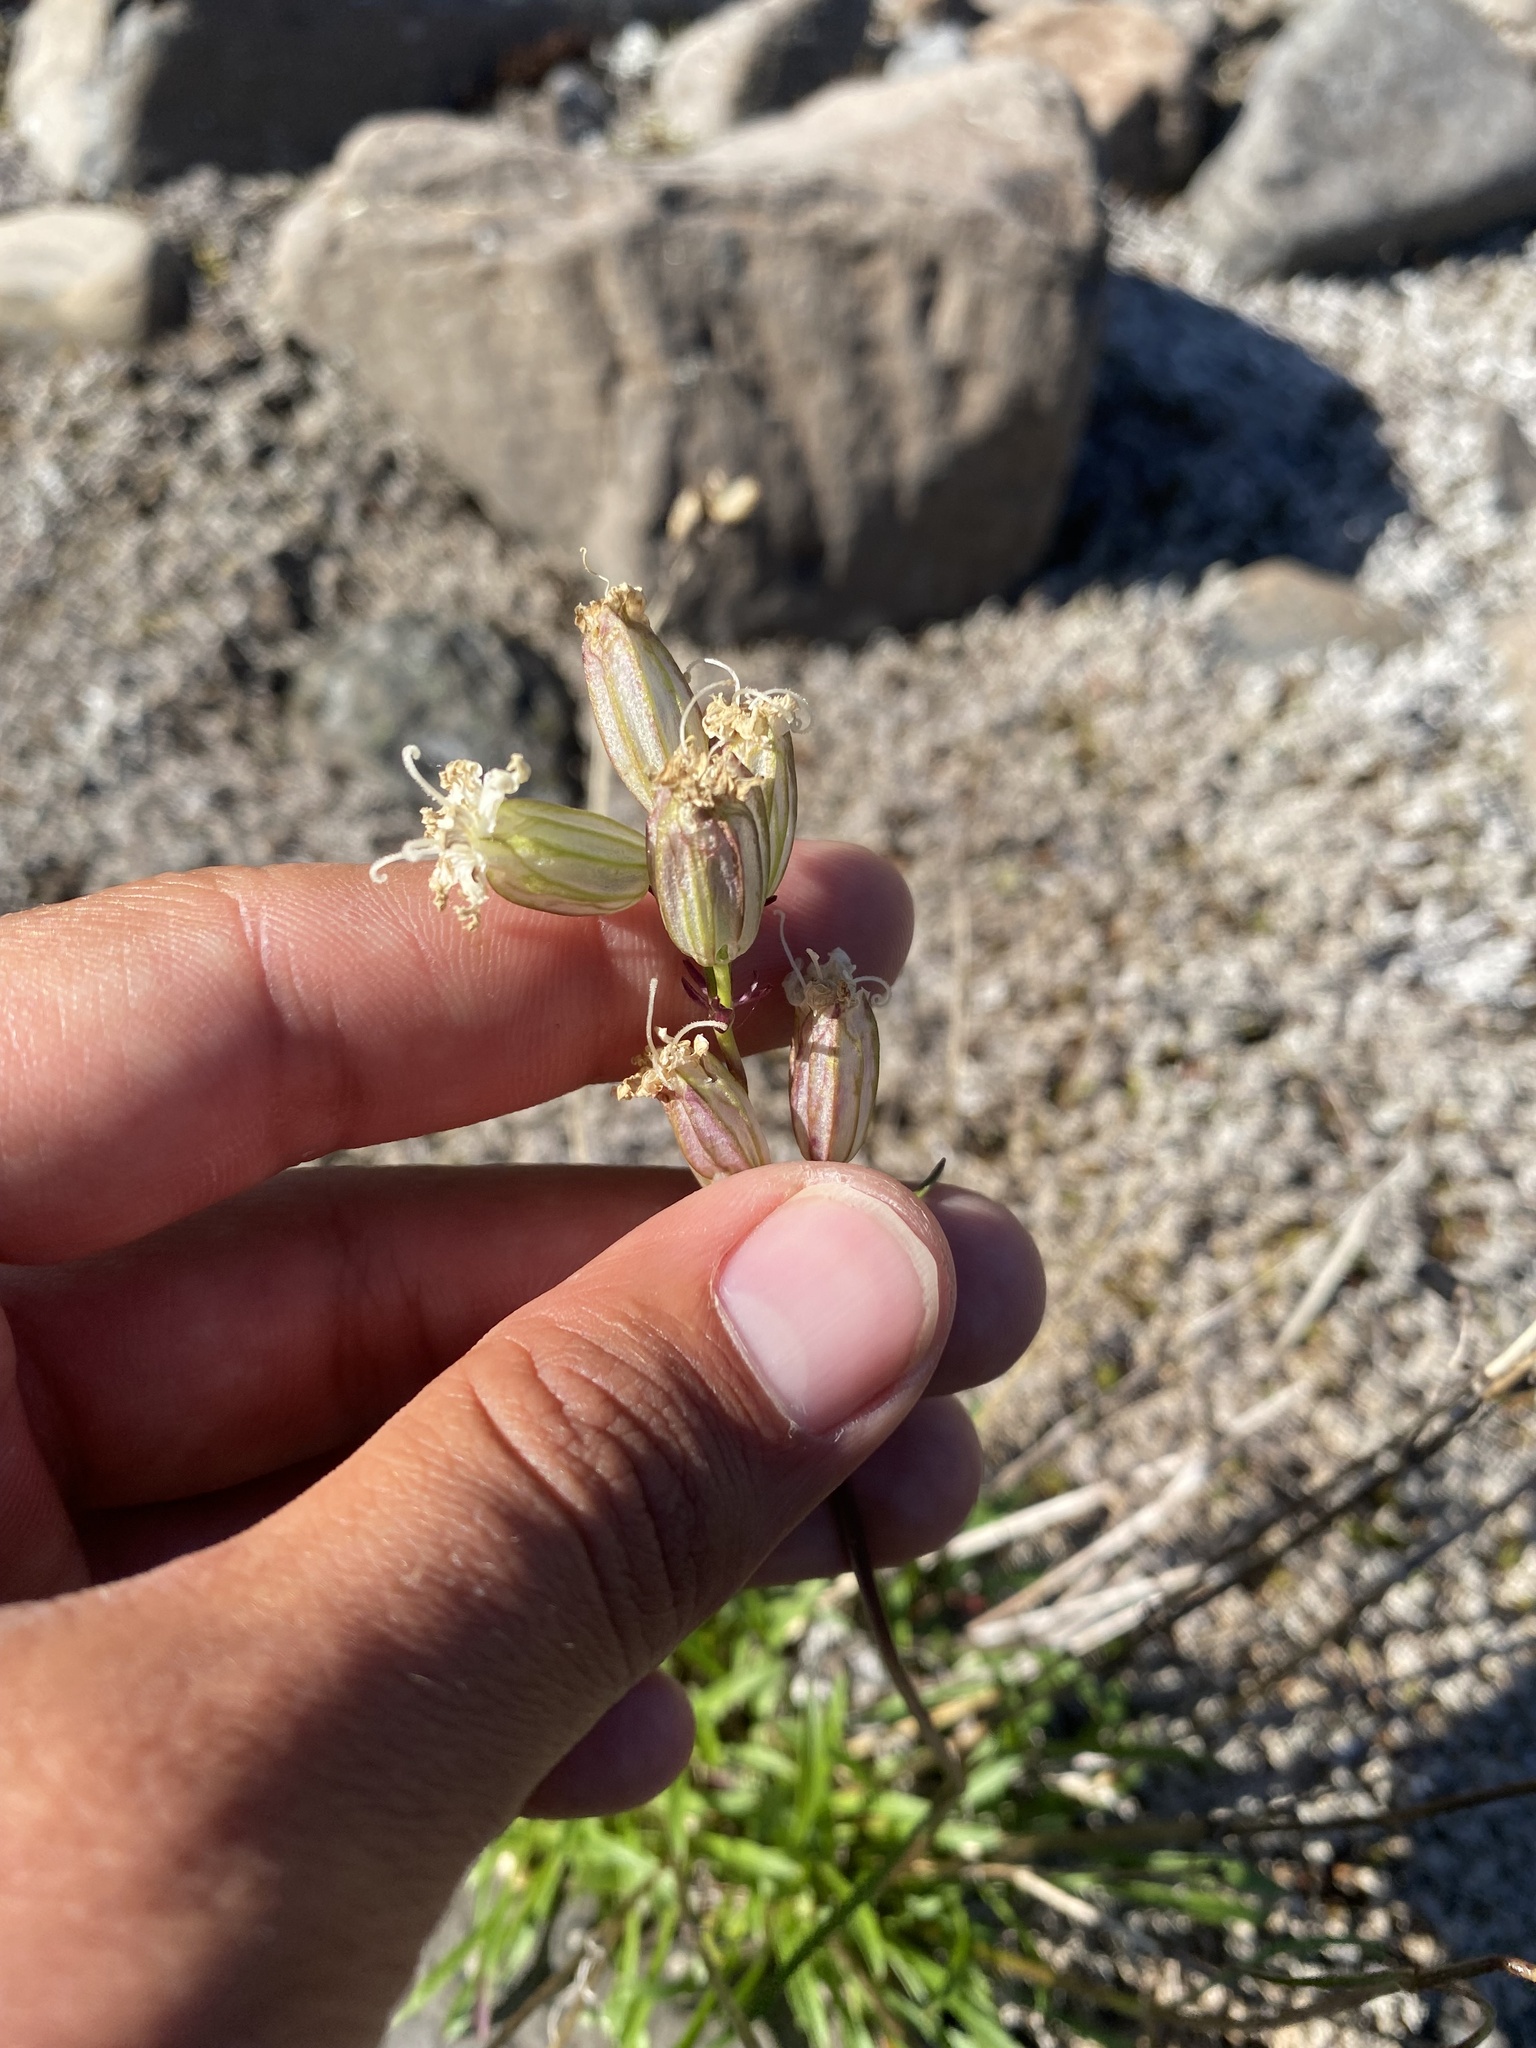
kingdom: Plantae
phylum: Tracheophyta
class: Magnoliopsida
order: Caryophyllales
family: Caryophyllaceae
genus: Silene
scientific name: Silene chamarensis
